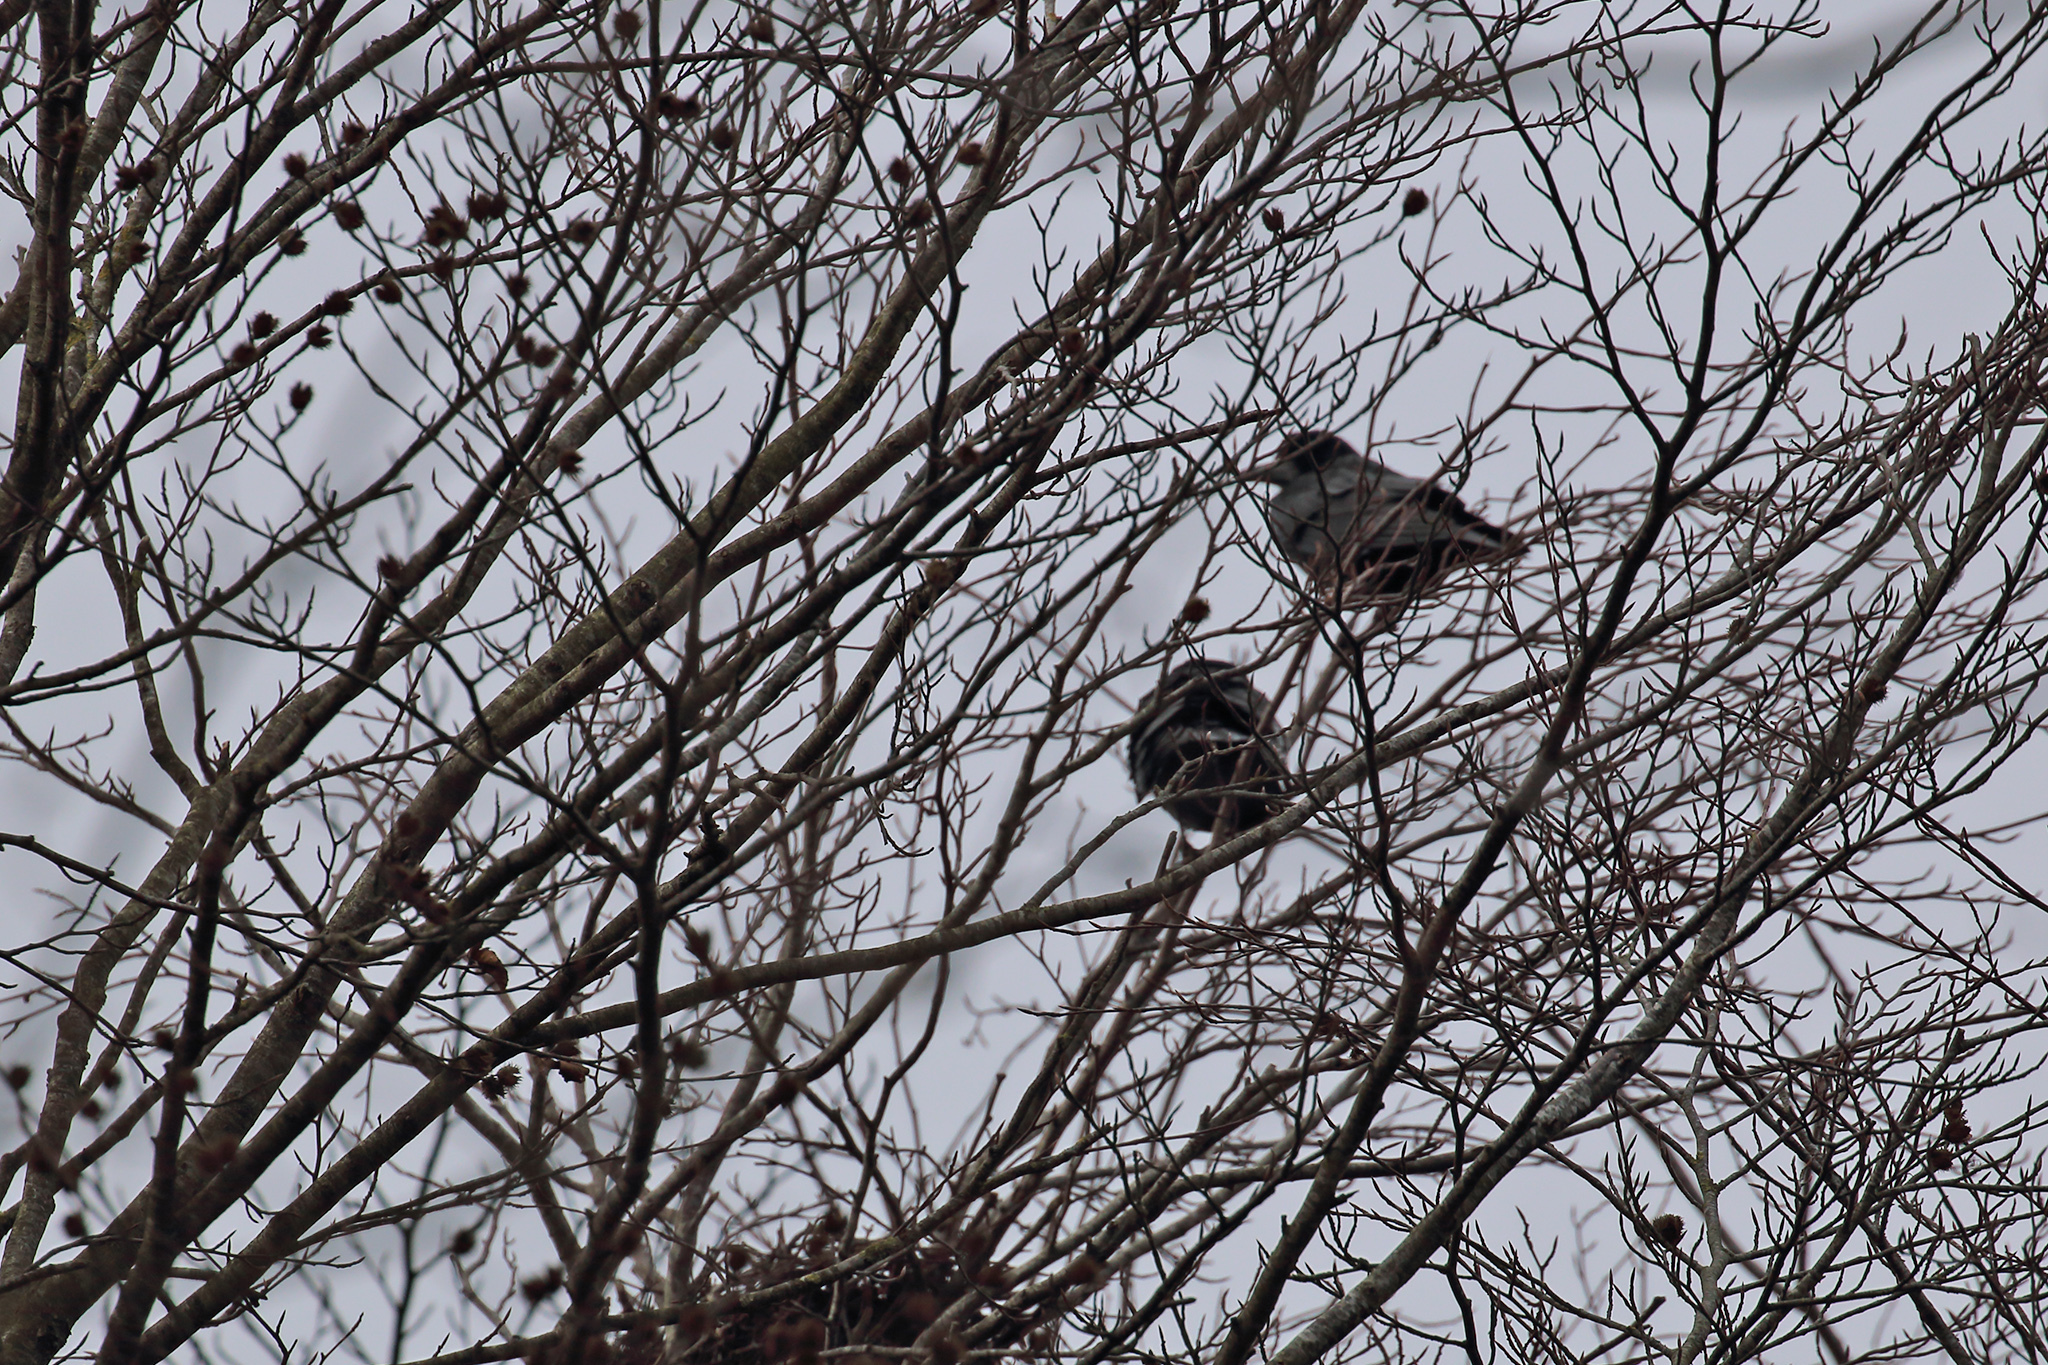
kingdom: Animalia
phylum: Chordata
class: Aves
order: Passeriformes
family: Corvidae
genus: Corvus
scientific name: Corvus frugilegus
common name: Rook
